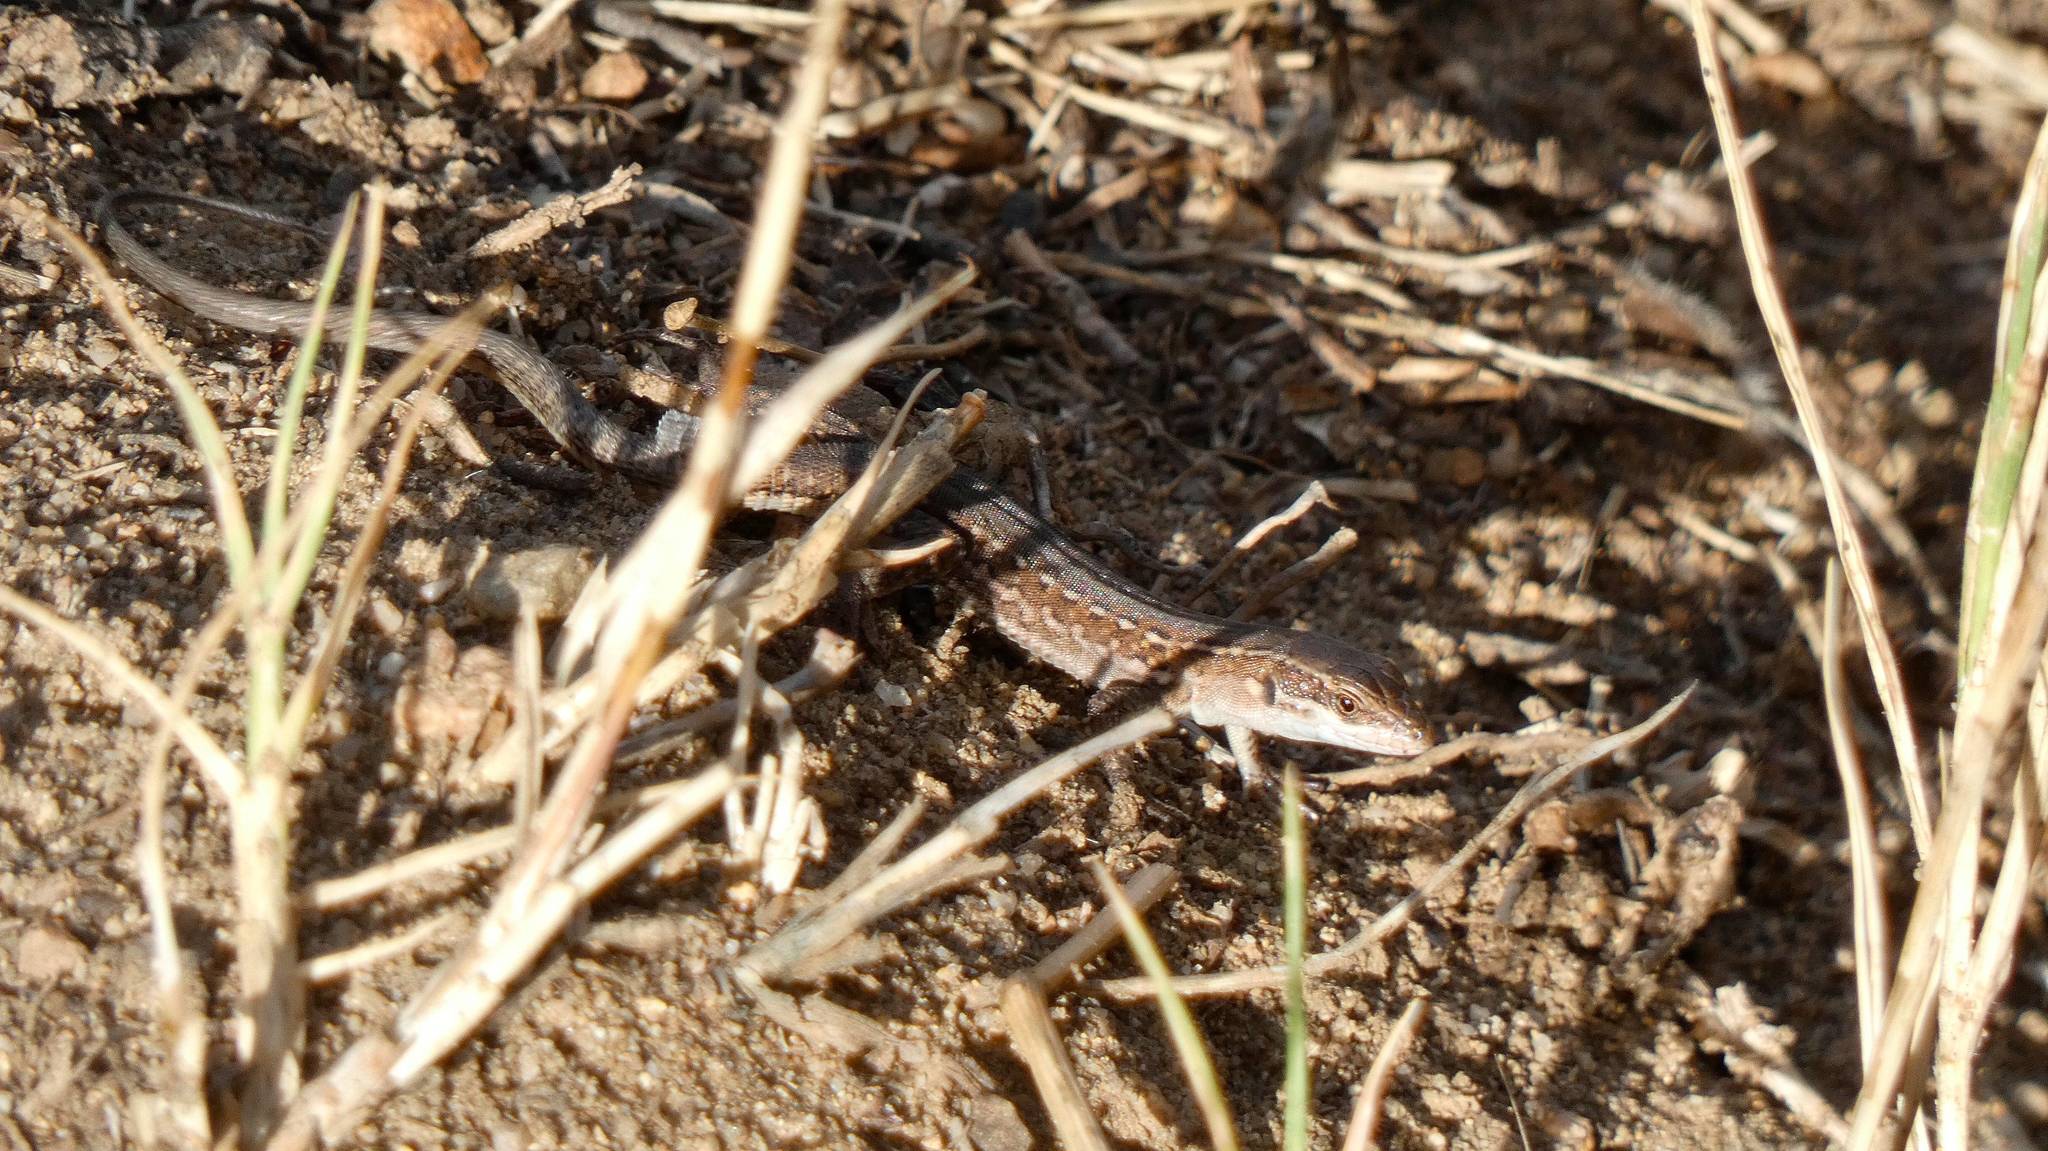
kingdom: Animalia
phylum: Chordata
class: Squamata
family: Lacertidae
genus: Podarcis
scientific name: Podarcis siculus
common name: Italian wall lizard
